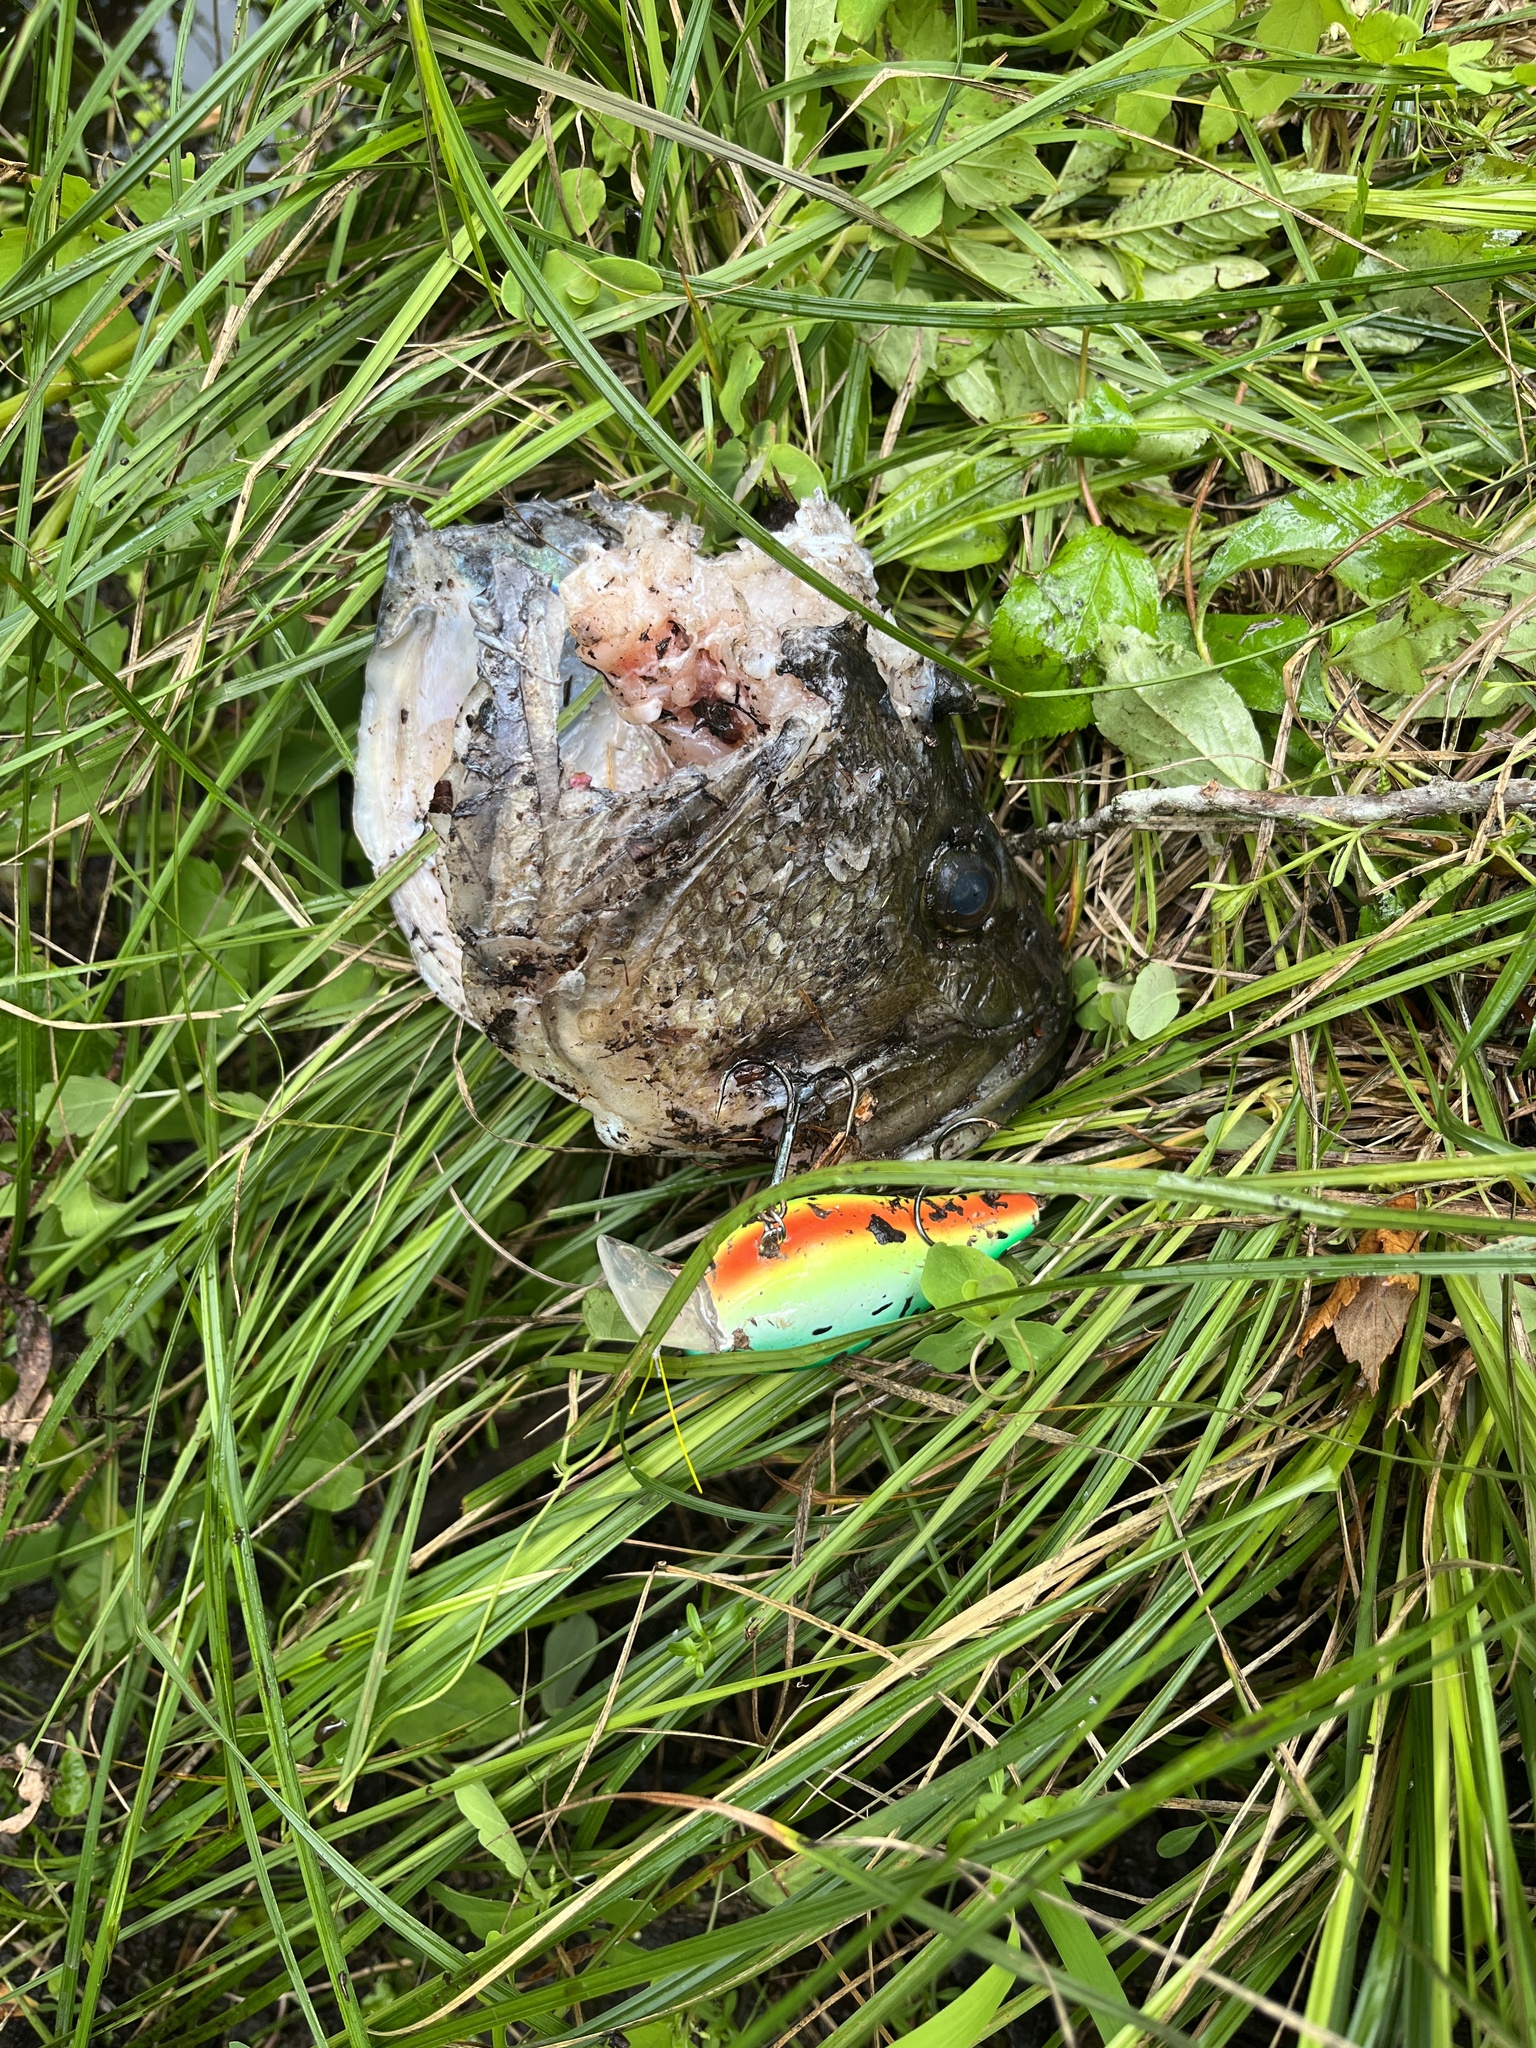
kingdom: Animalia
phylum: Chordata
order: Perciformes
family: Centrarchidae
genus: Micropterus
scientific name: Micropterus
